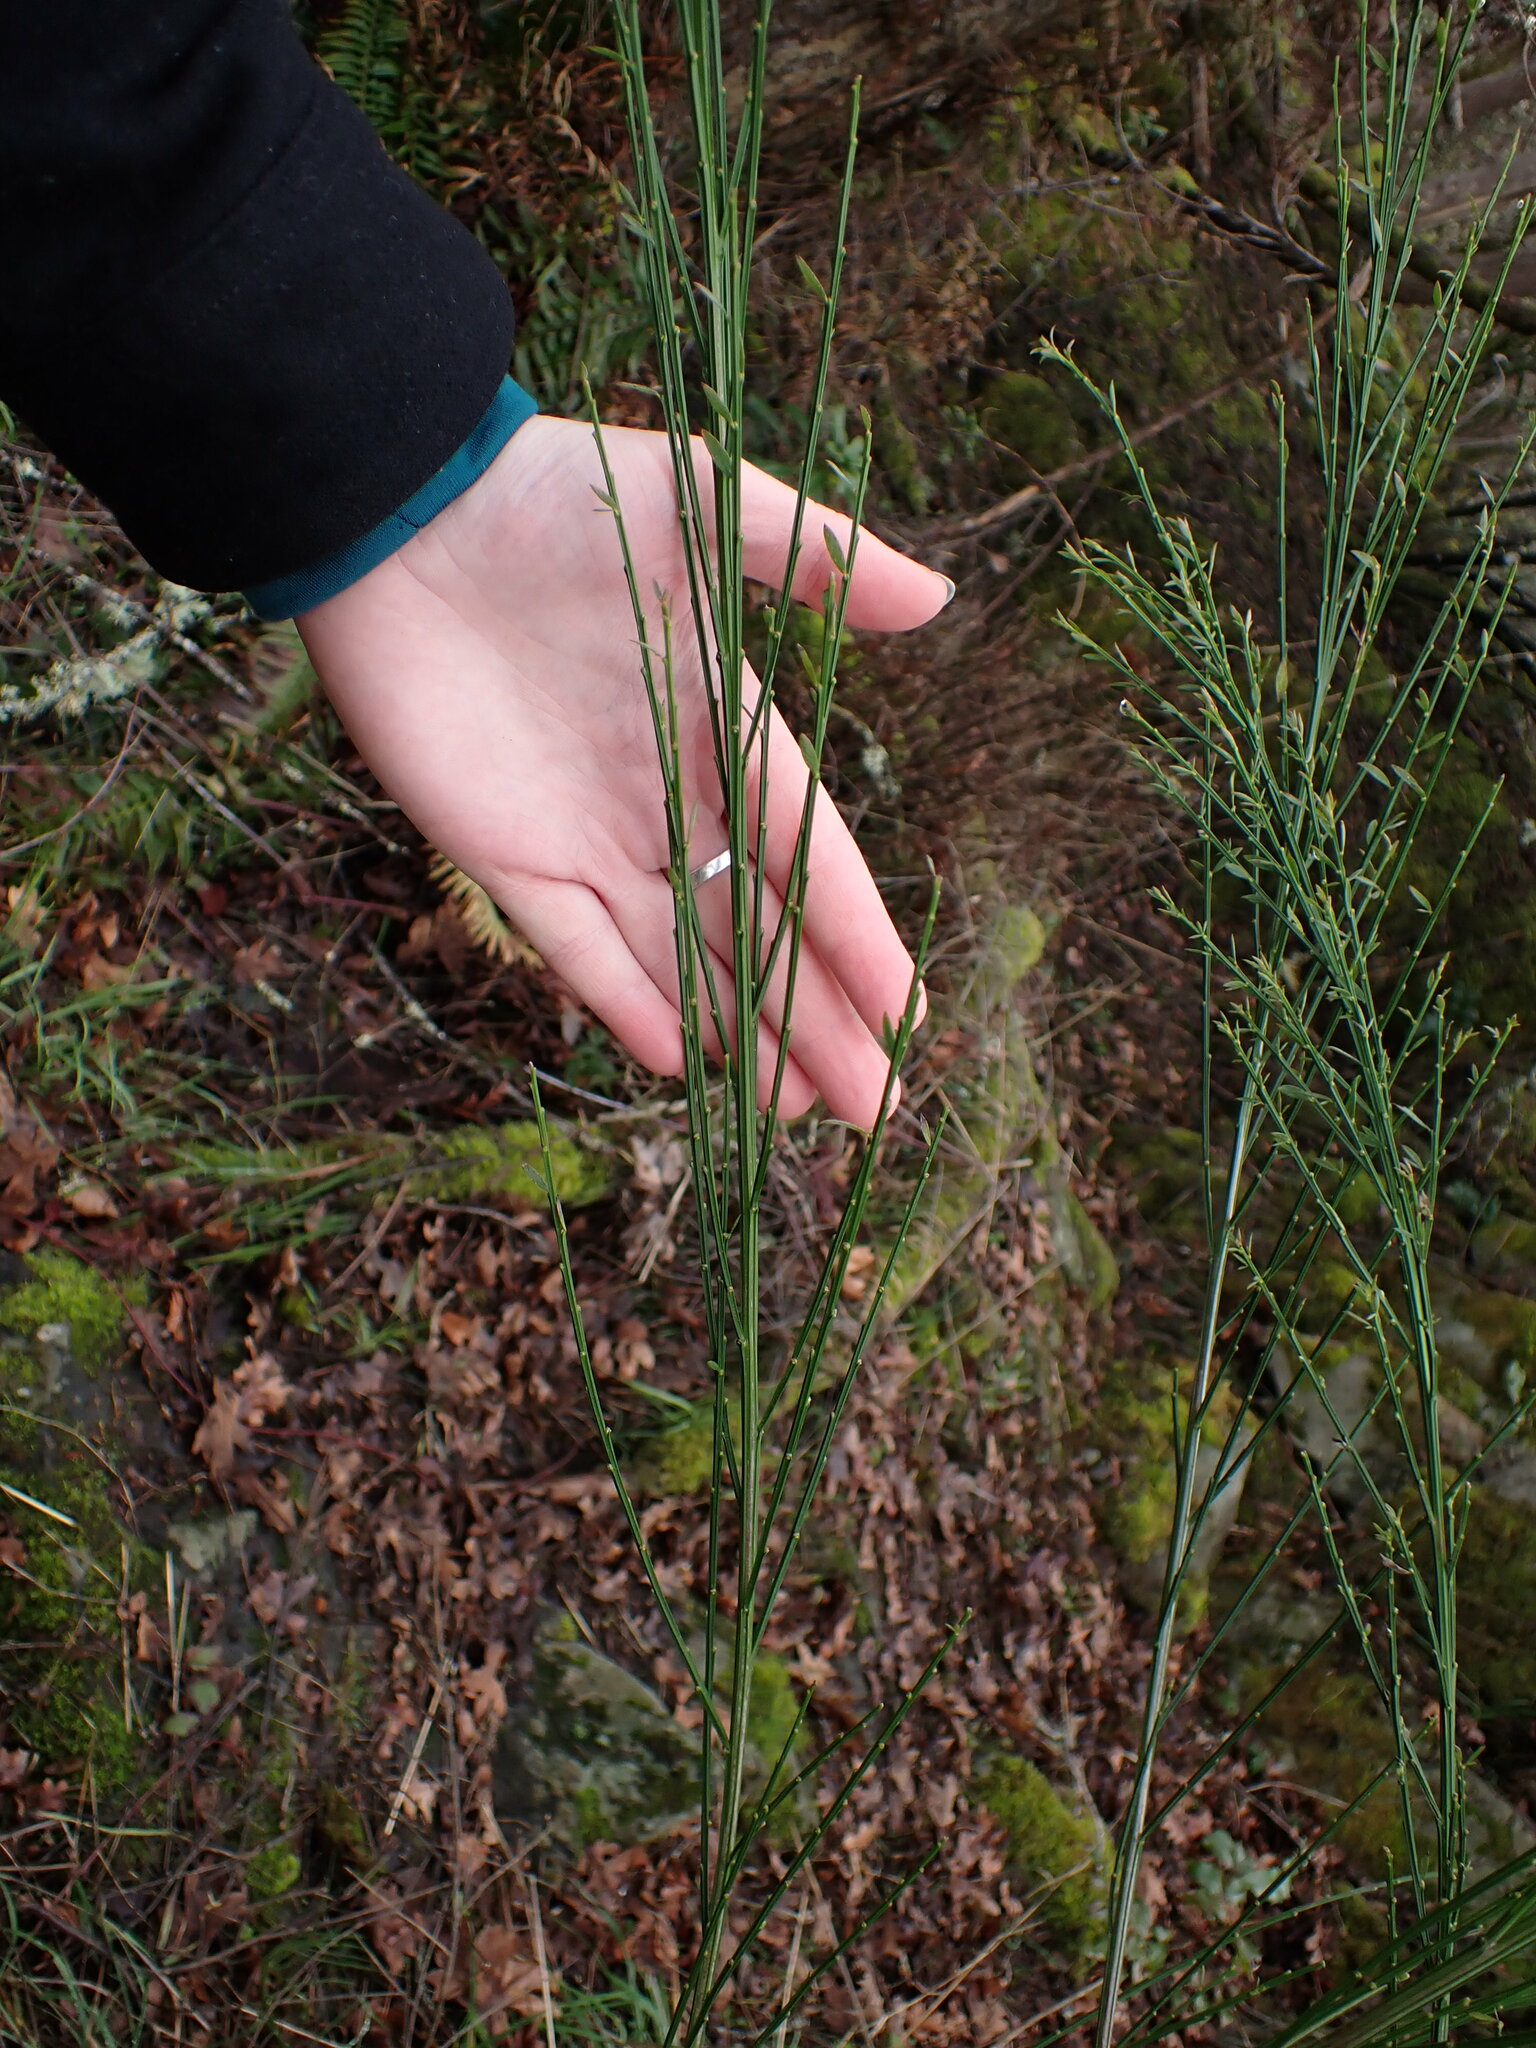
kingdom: Plantae
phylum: Tracheophyta
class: Magnoliopsida
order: Fabales
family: Fabaceae
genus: Cytisus
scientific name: Cytisus scoparius
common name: Scotch broom
